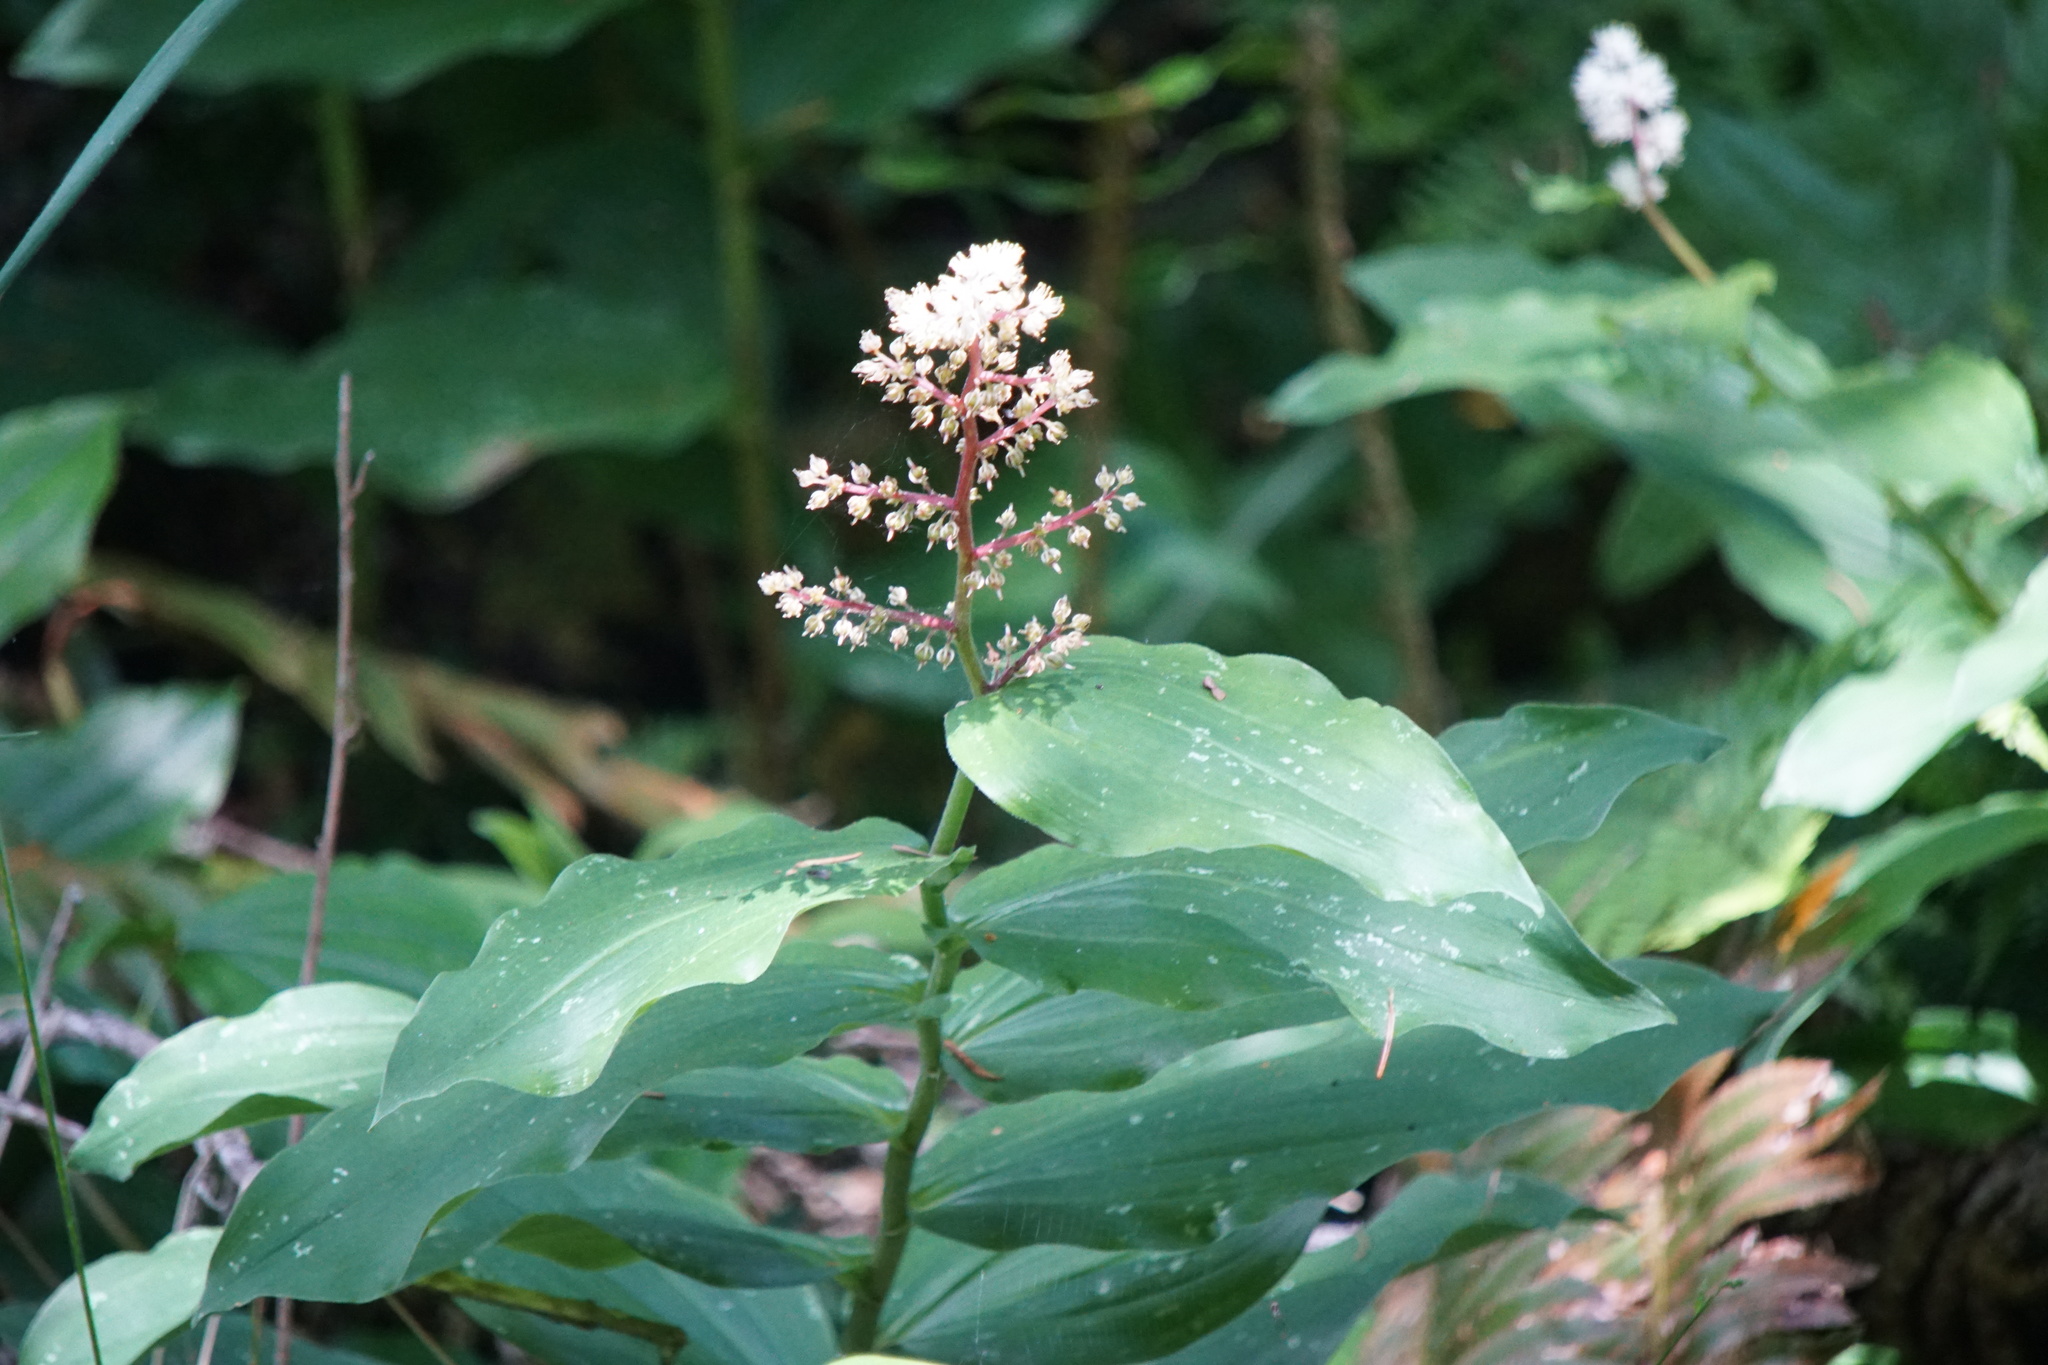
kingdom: Plantae
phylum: Tracheophyta
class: Liliopsida
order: Asparagales
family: Asparagaceae
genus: Maianthemum
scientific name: Maianthemum racemosum
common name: False spikenard
